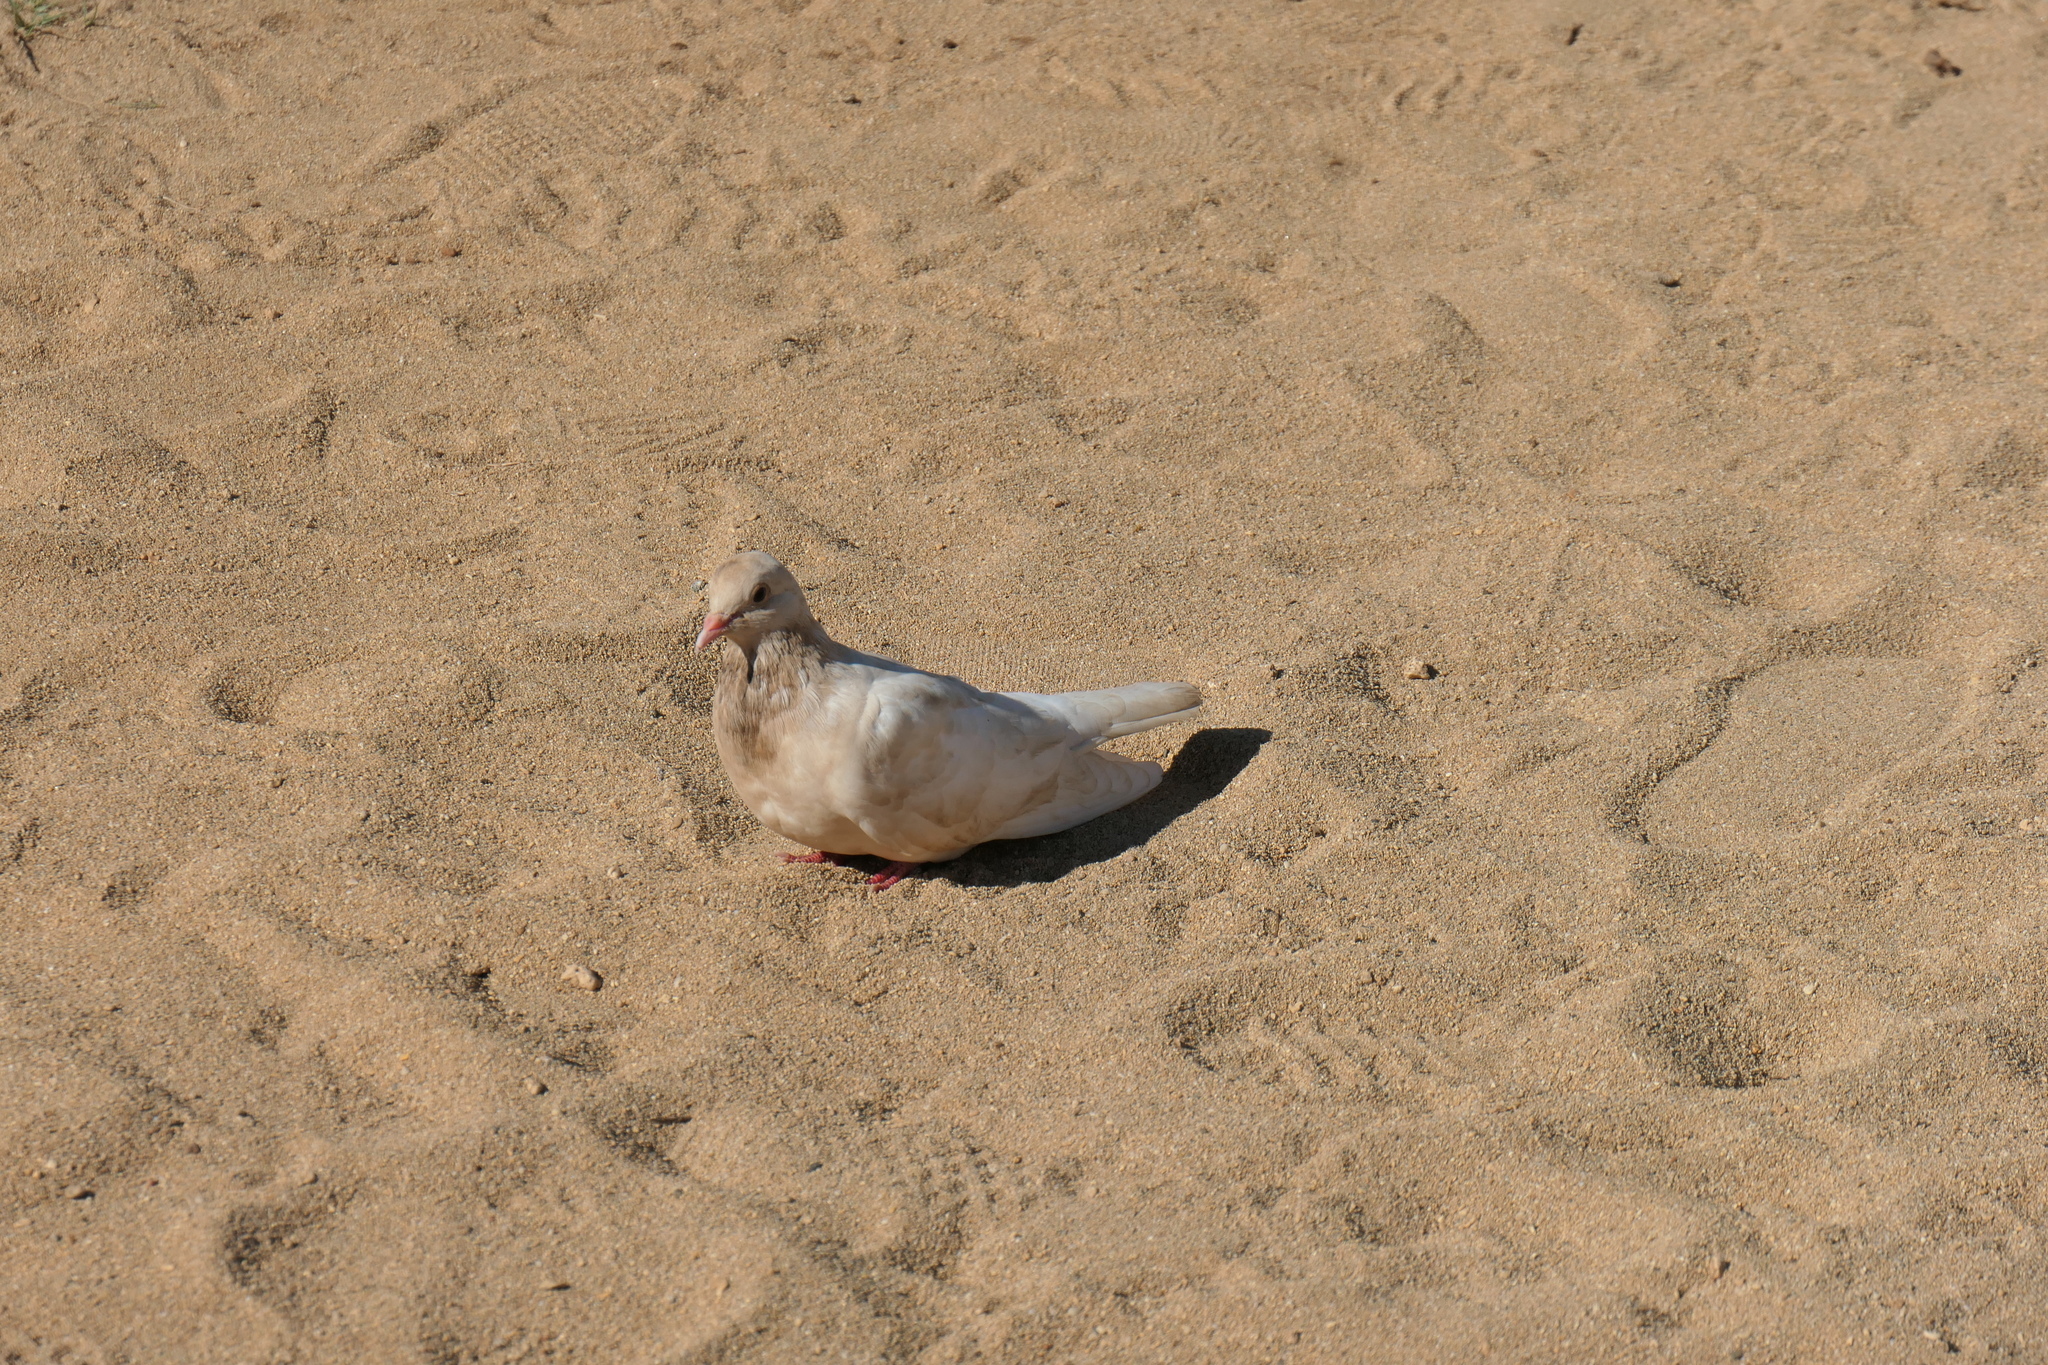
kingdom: Animalia
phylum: Chordata
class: Aves
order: Columbiformes
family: Columbidae
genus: Columba
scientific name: Columba livia
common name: Rock pigeon
